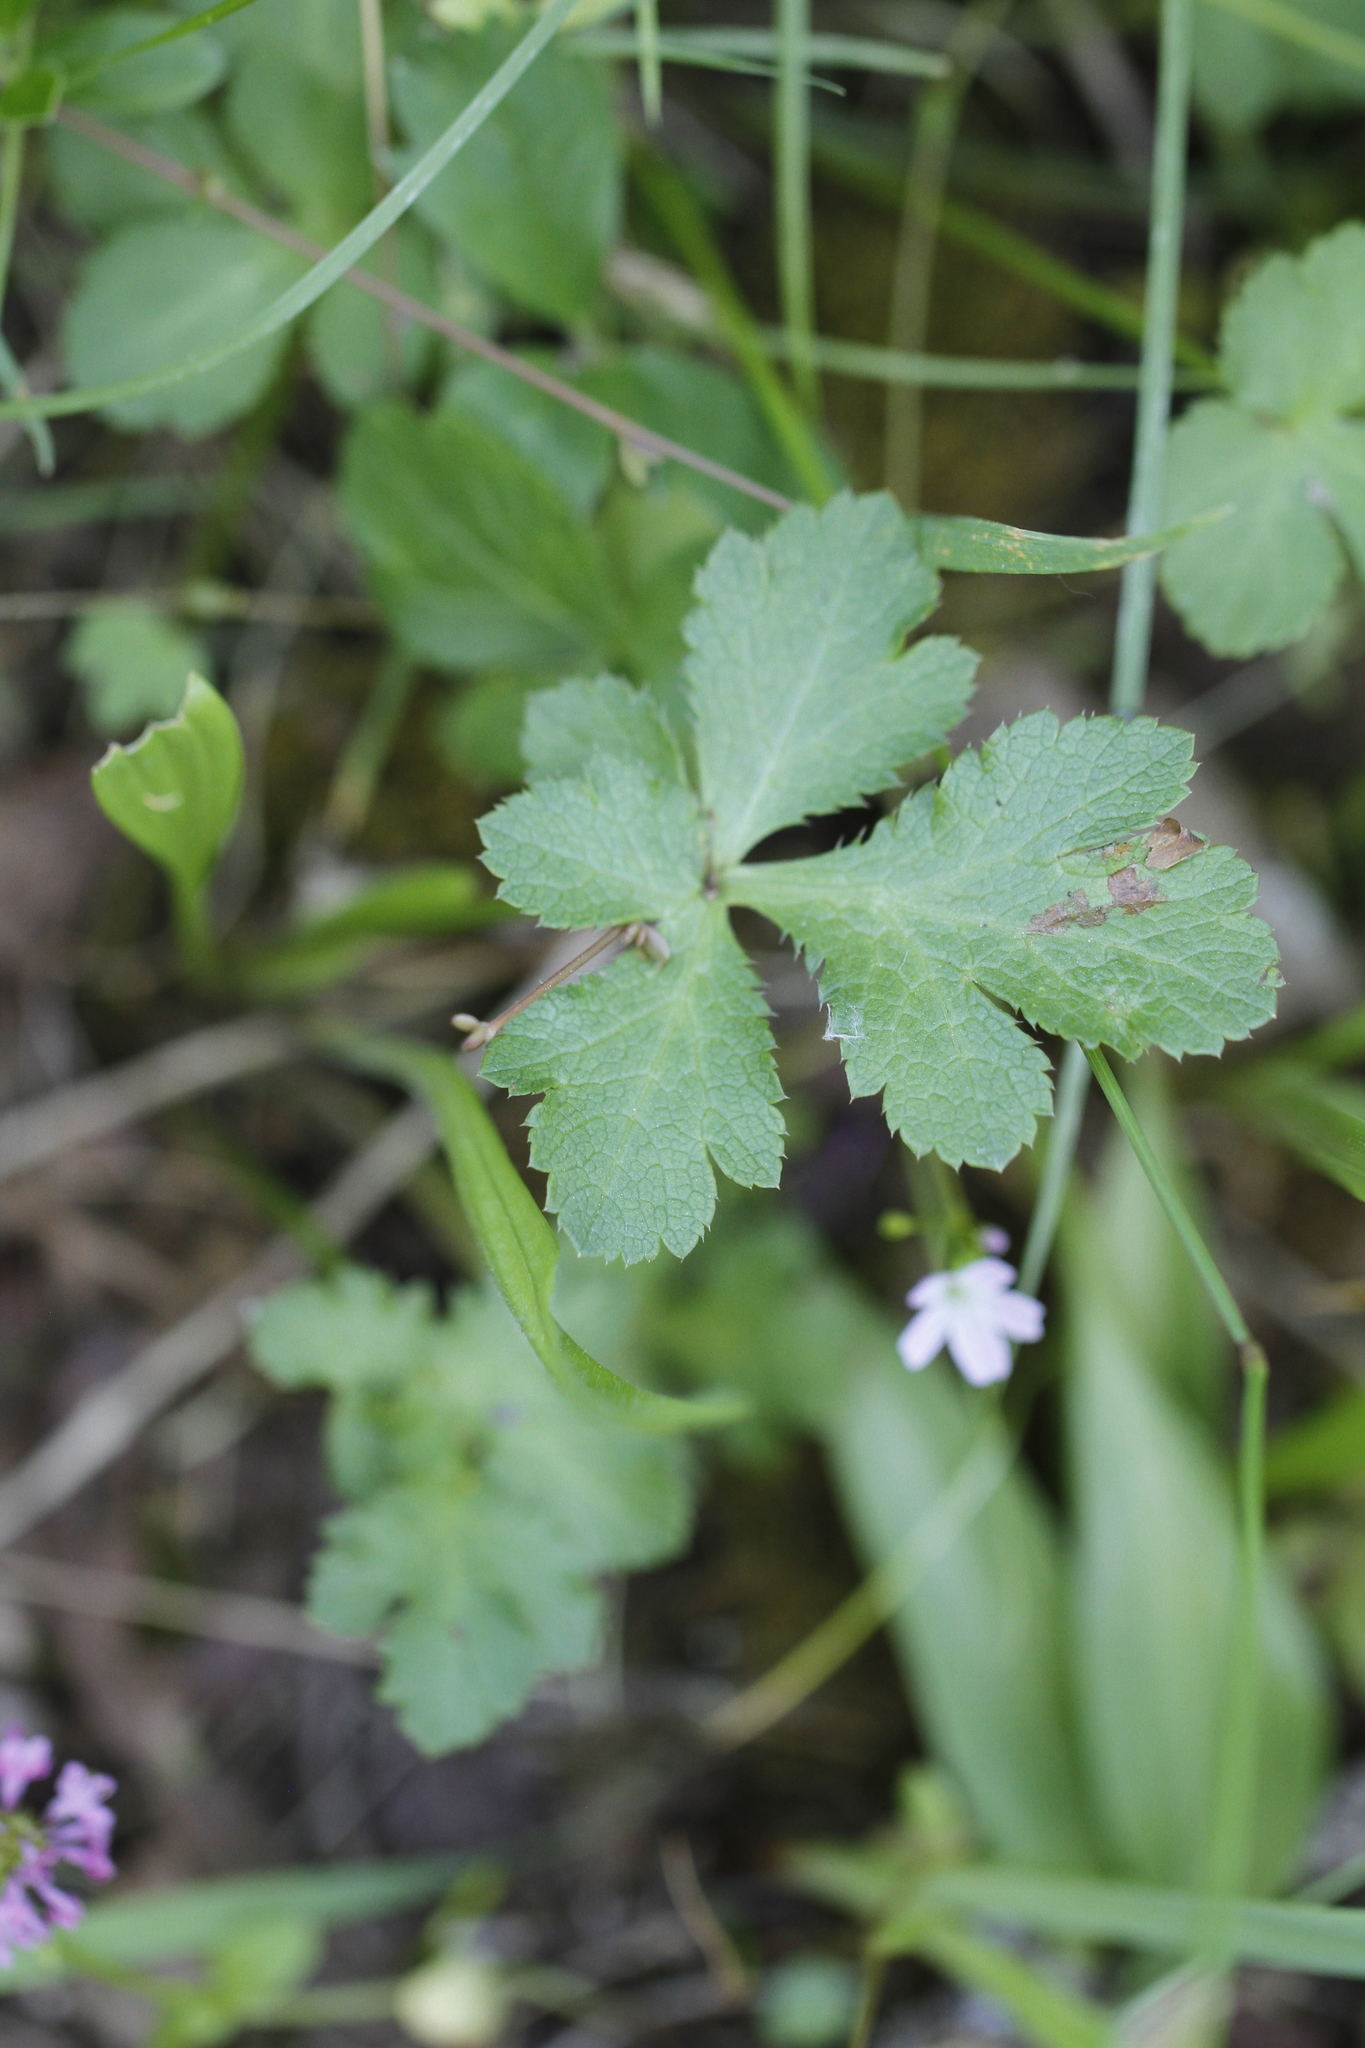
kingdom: Plantae
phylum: Tracheophyta
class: Magnoliopsida
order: Apiales
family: Apiaceae
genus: Sanicula
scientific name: Sanicula crassicaulis
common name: Western snakeroot
